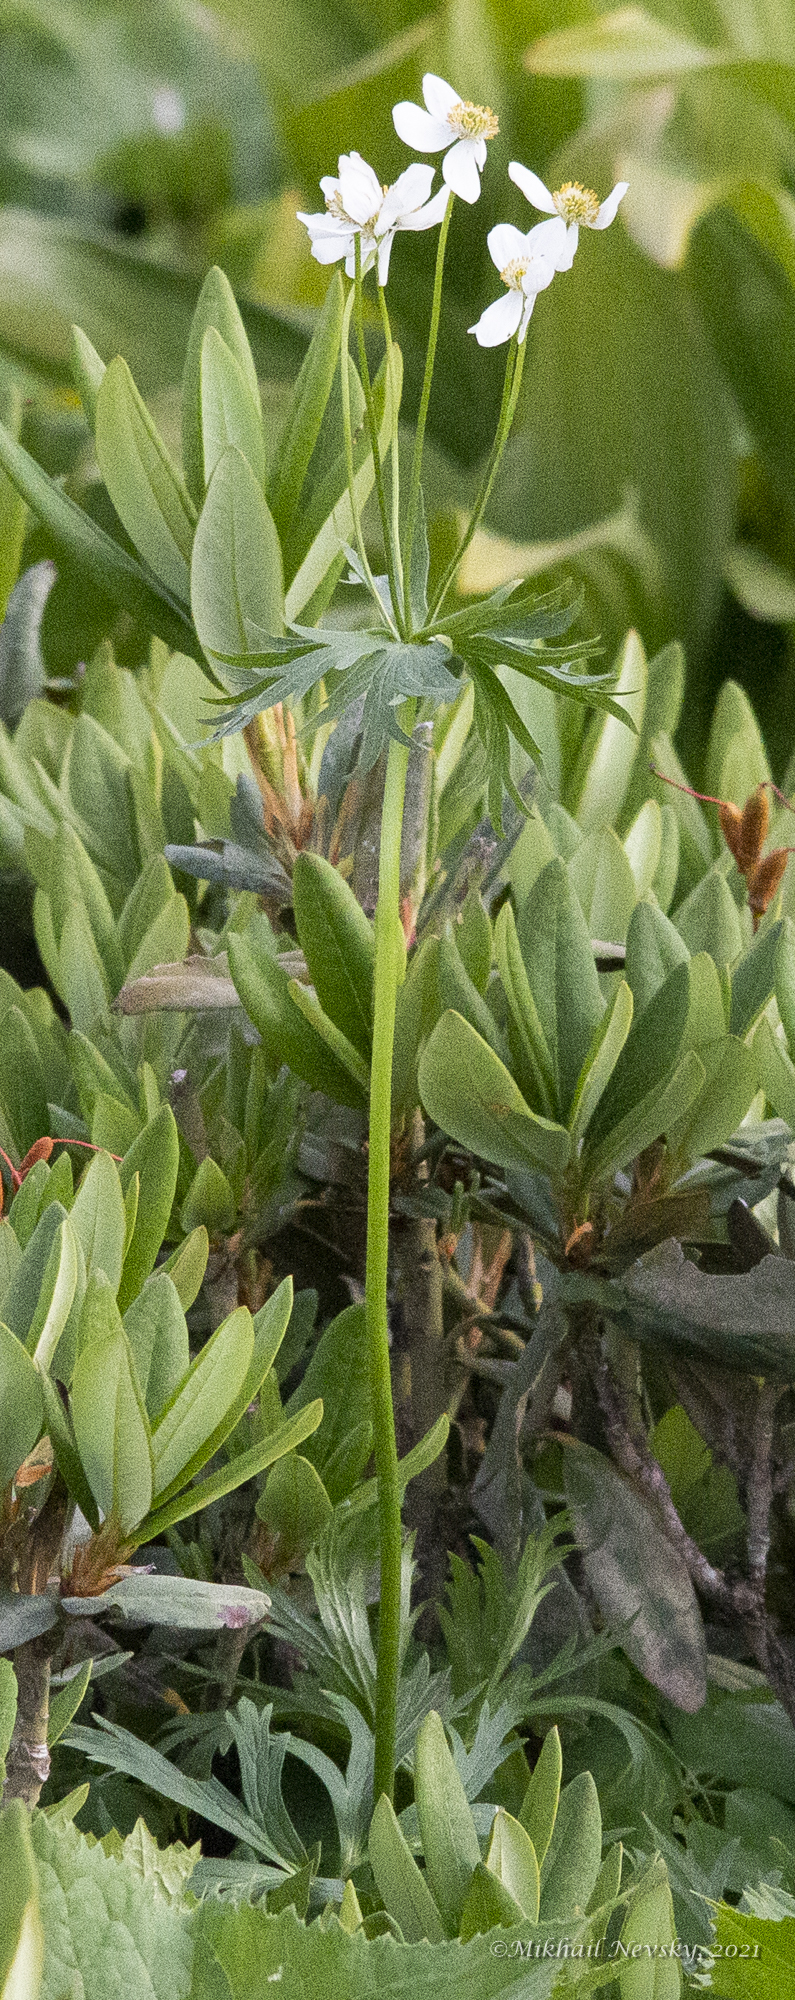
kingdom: Plantae
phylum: Tracheophyta
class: Magnoliopsida
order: Ranunculales
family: Ranunculaceae
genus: Anemonastrum
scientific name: Anemonastrum narcissiflorum
